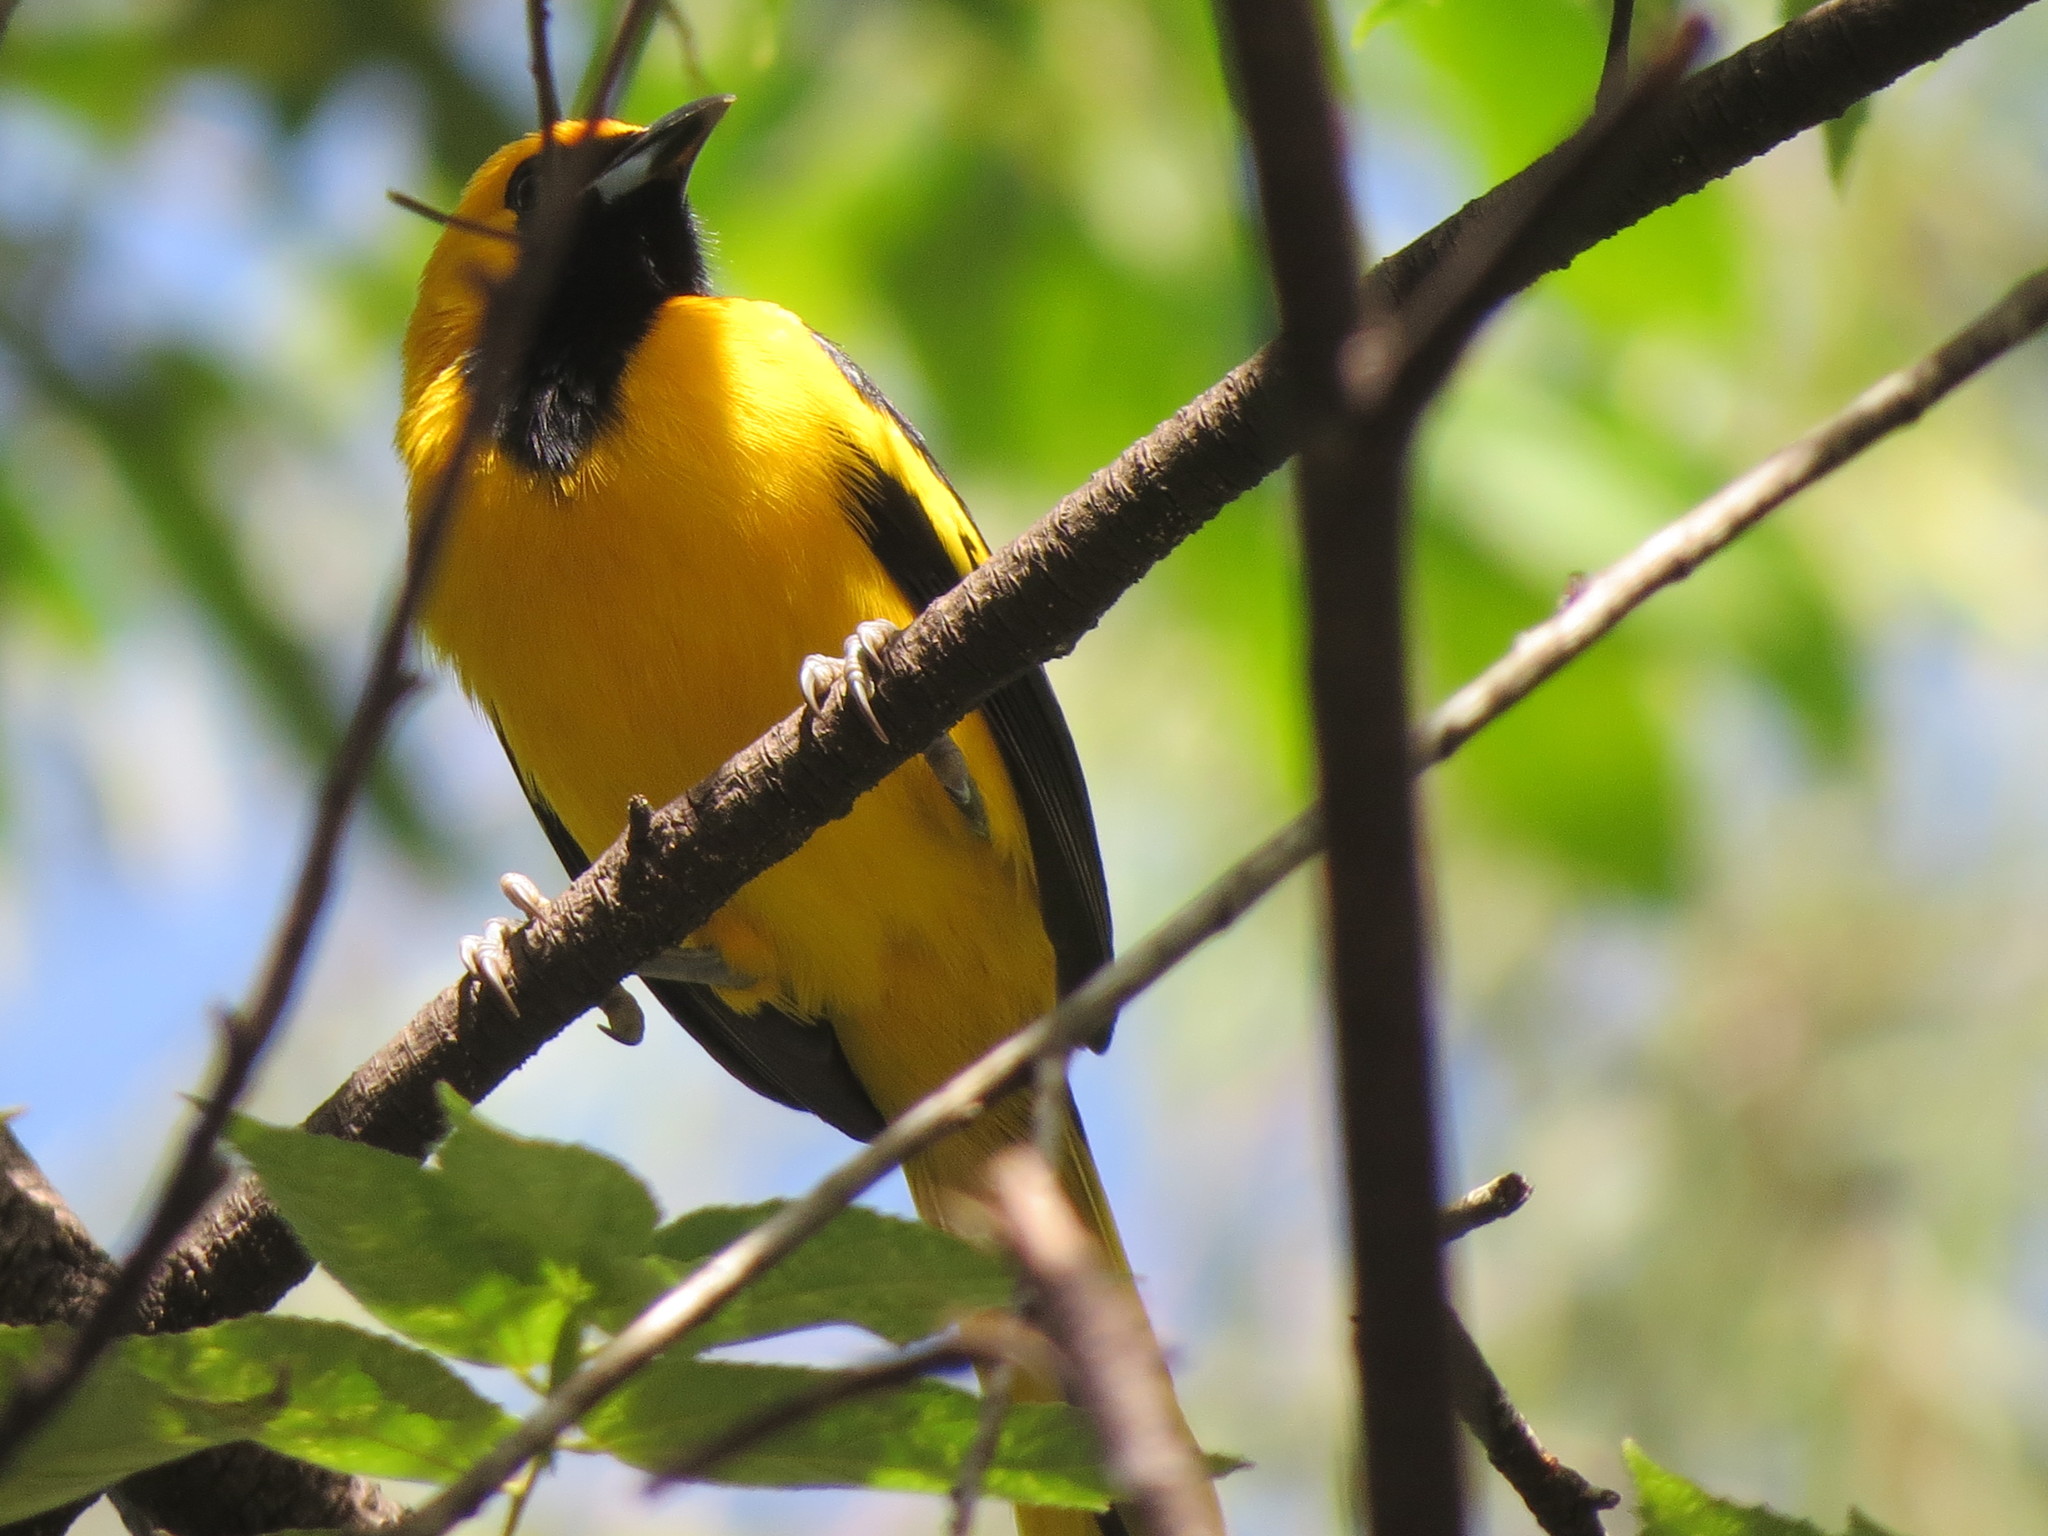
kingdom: Animalia
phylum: Chordata
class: Aves
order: Passeriformes
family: Icteridae
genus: Icterus
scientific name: Icterus mesomelas
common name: Yellow-tailed oriole
